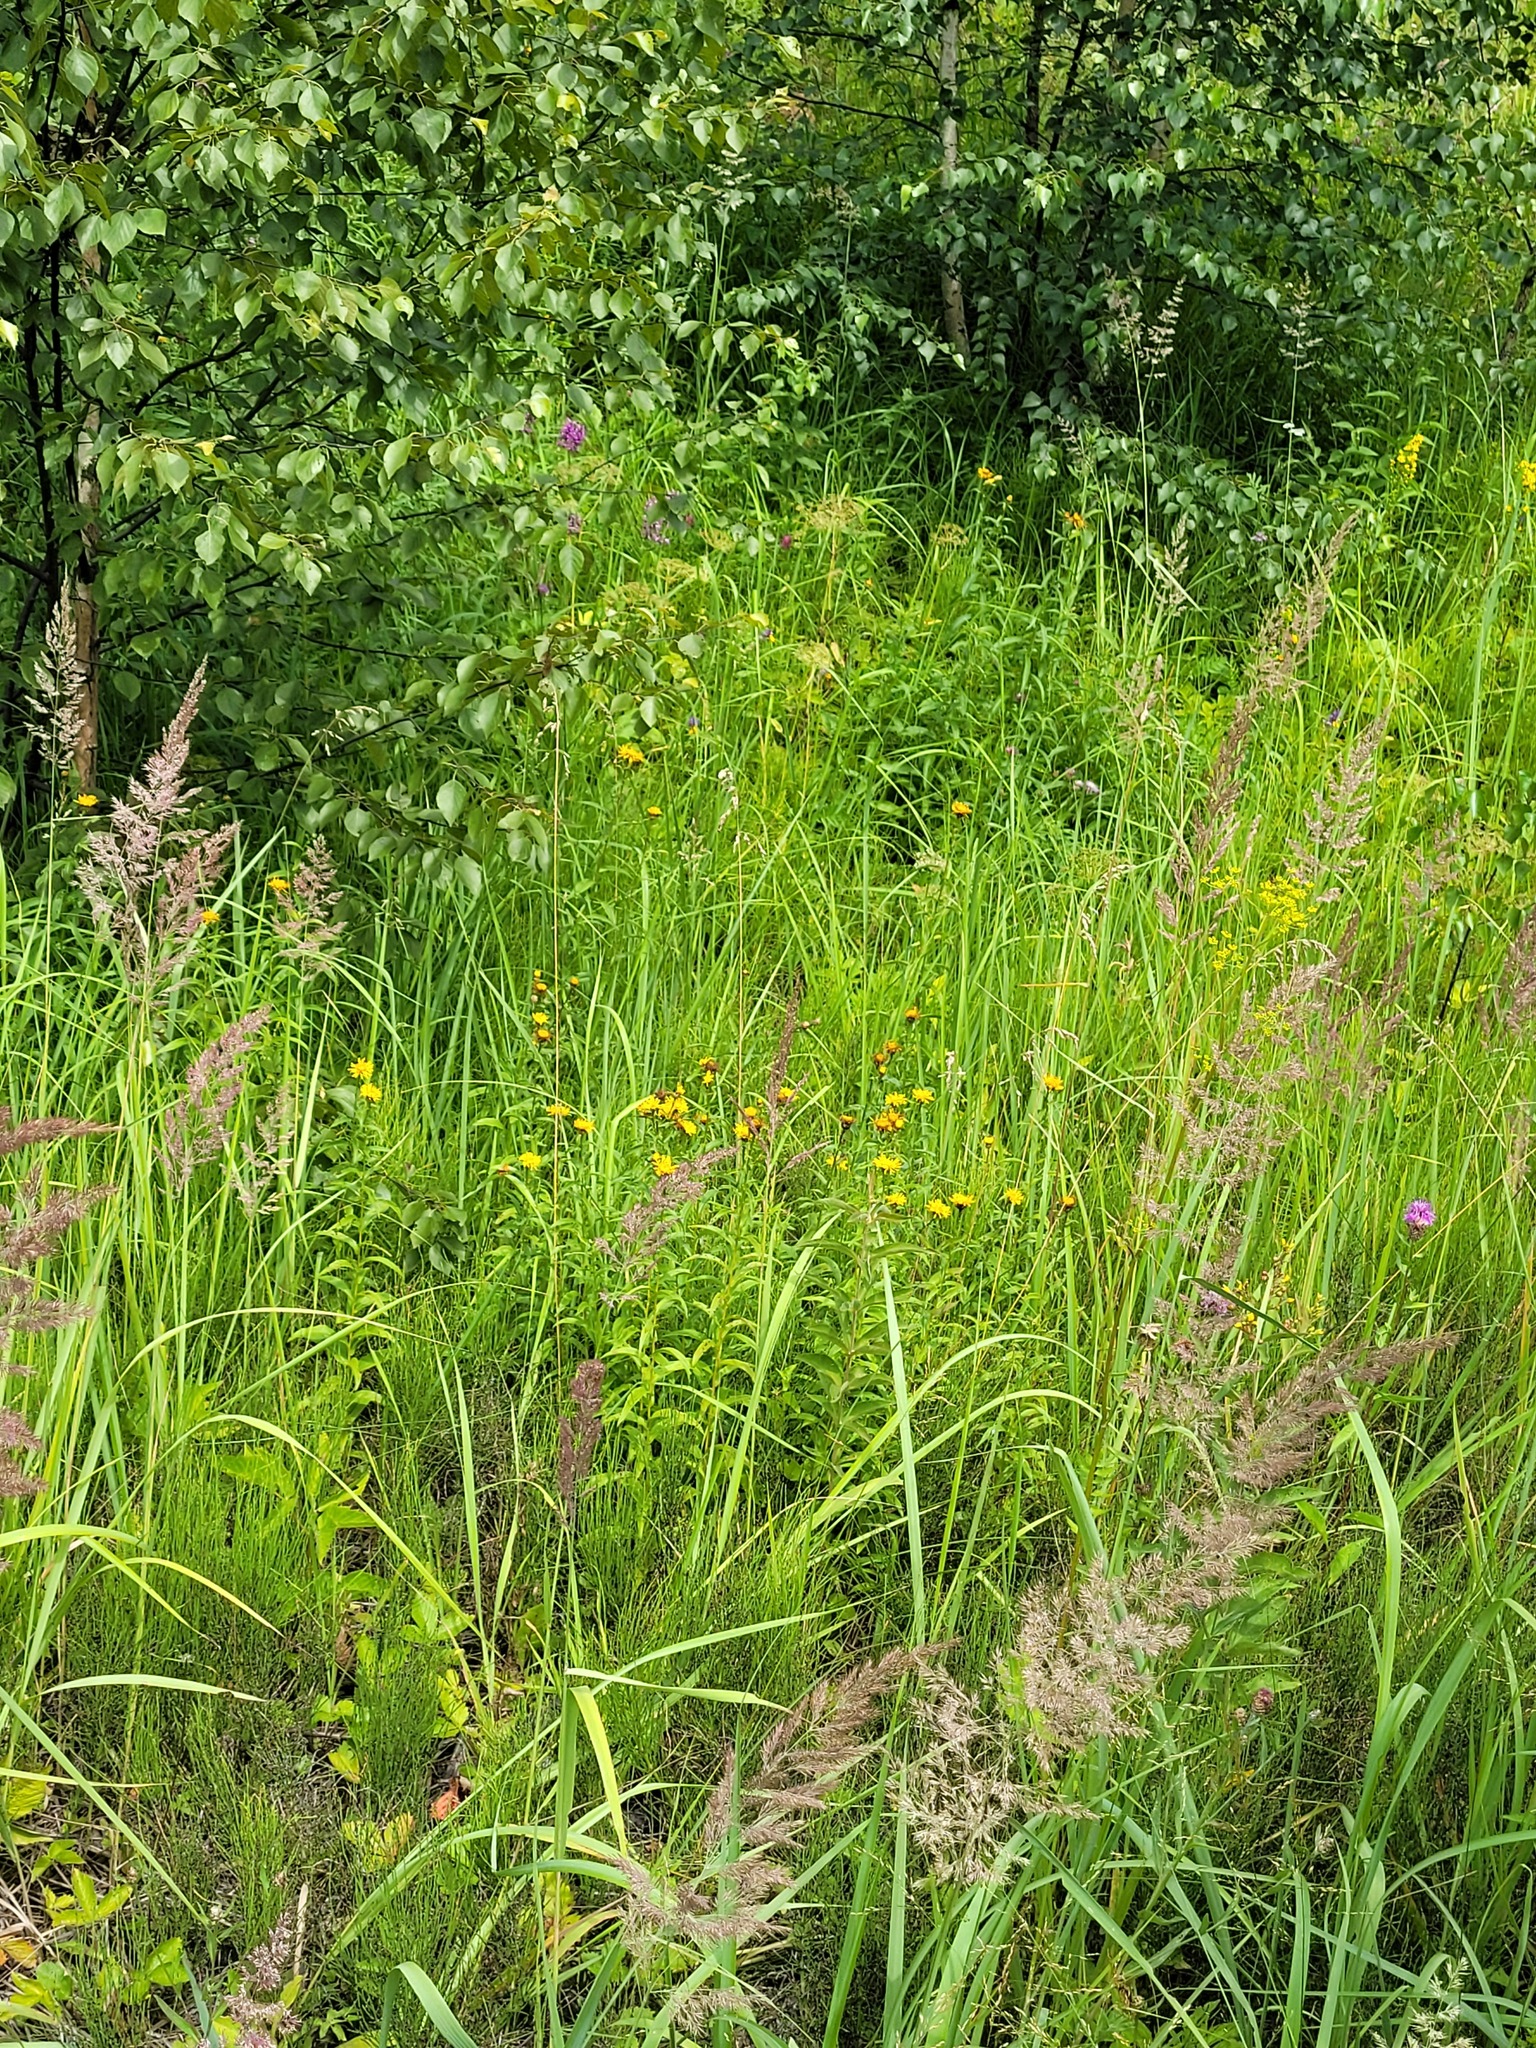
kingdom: Plantae
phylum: Tracheophyta
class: Magnoliopsida
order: Asterales
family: Asteraceae
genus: Pentanema
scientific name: Pentanema salicinum
